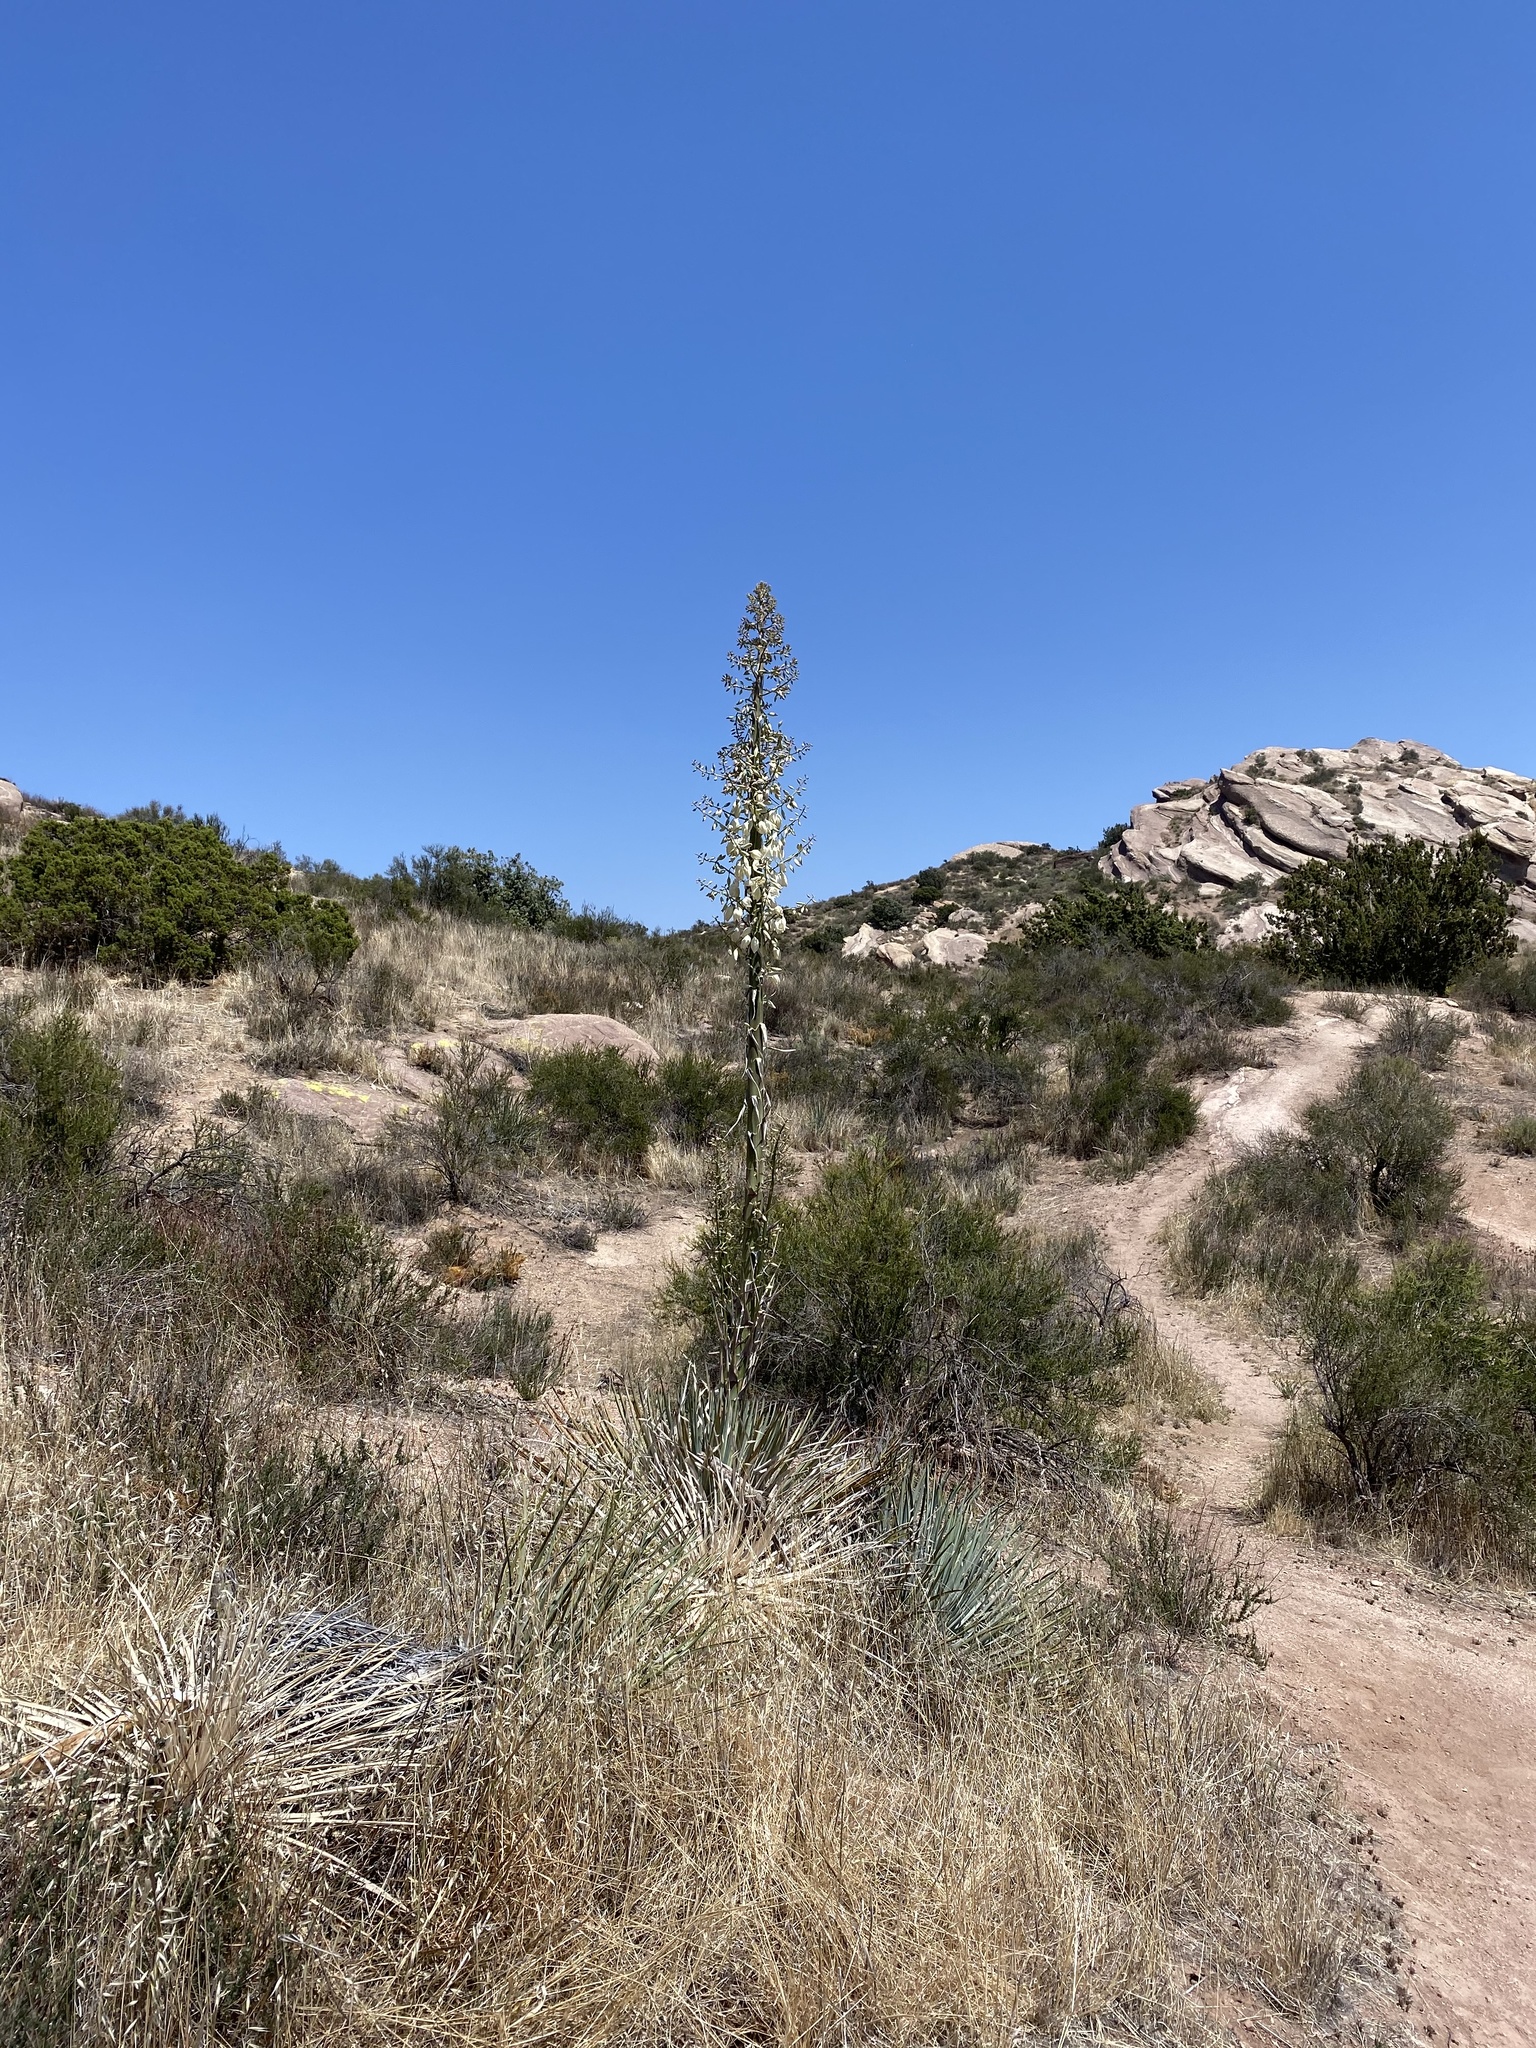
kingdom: Plantae
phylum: Tracheophyta
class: Liliopsida
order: Asparagales
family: Asparagaceae
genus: Hesperoyucca
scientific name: Hesperoyucca whipplei
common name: Our lord's-candle
